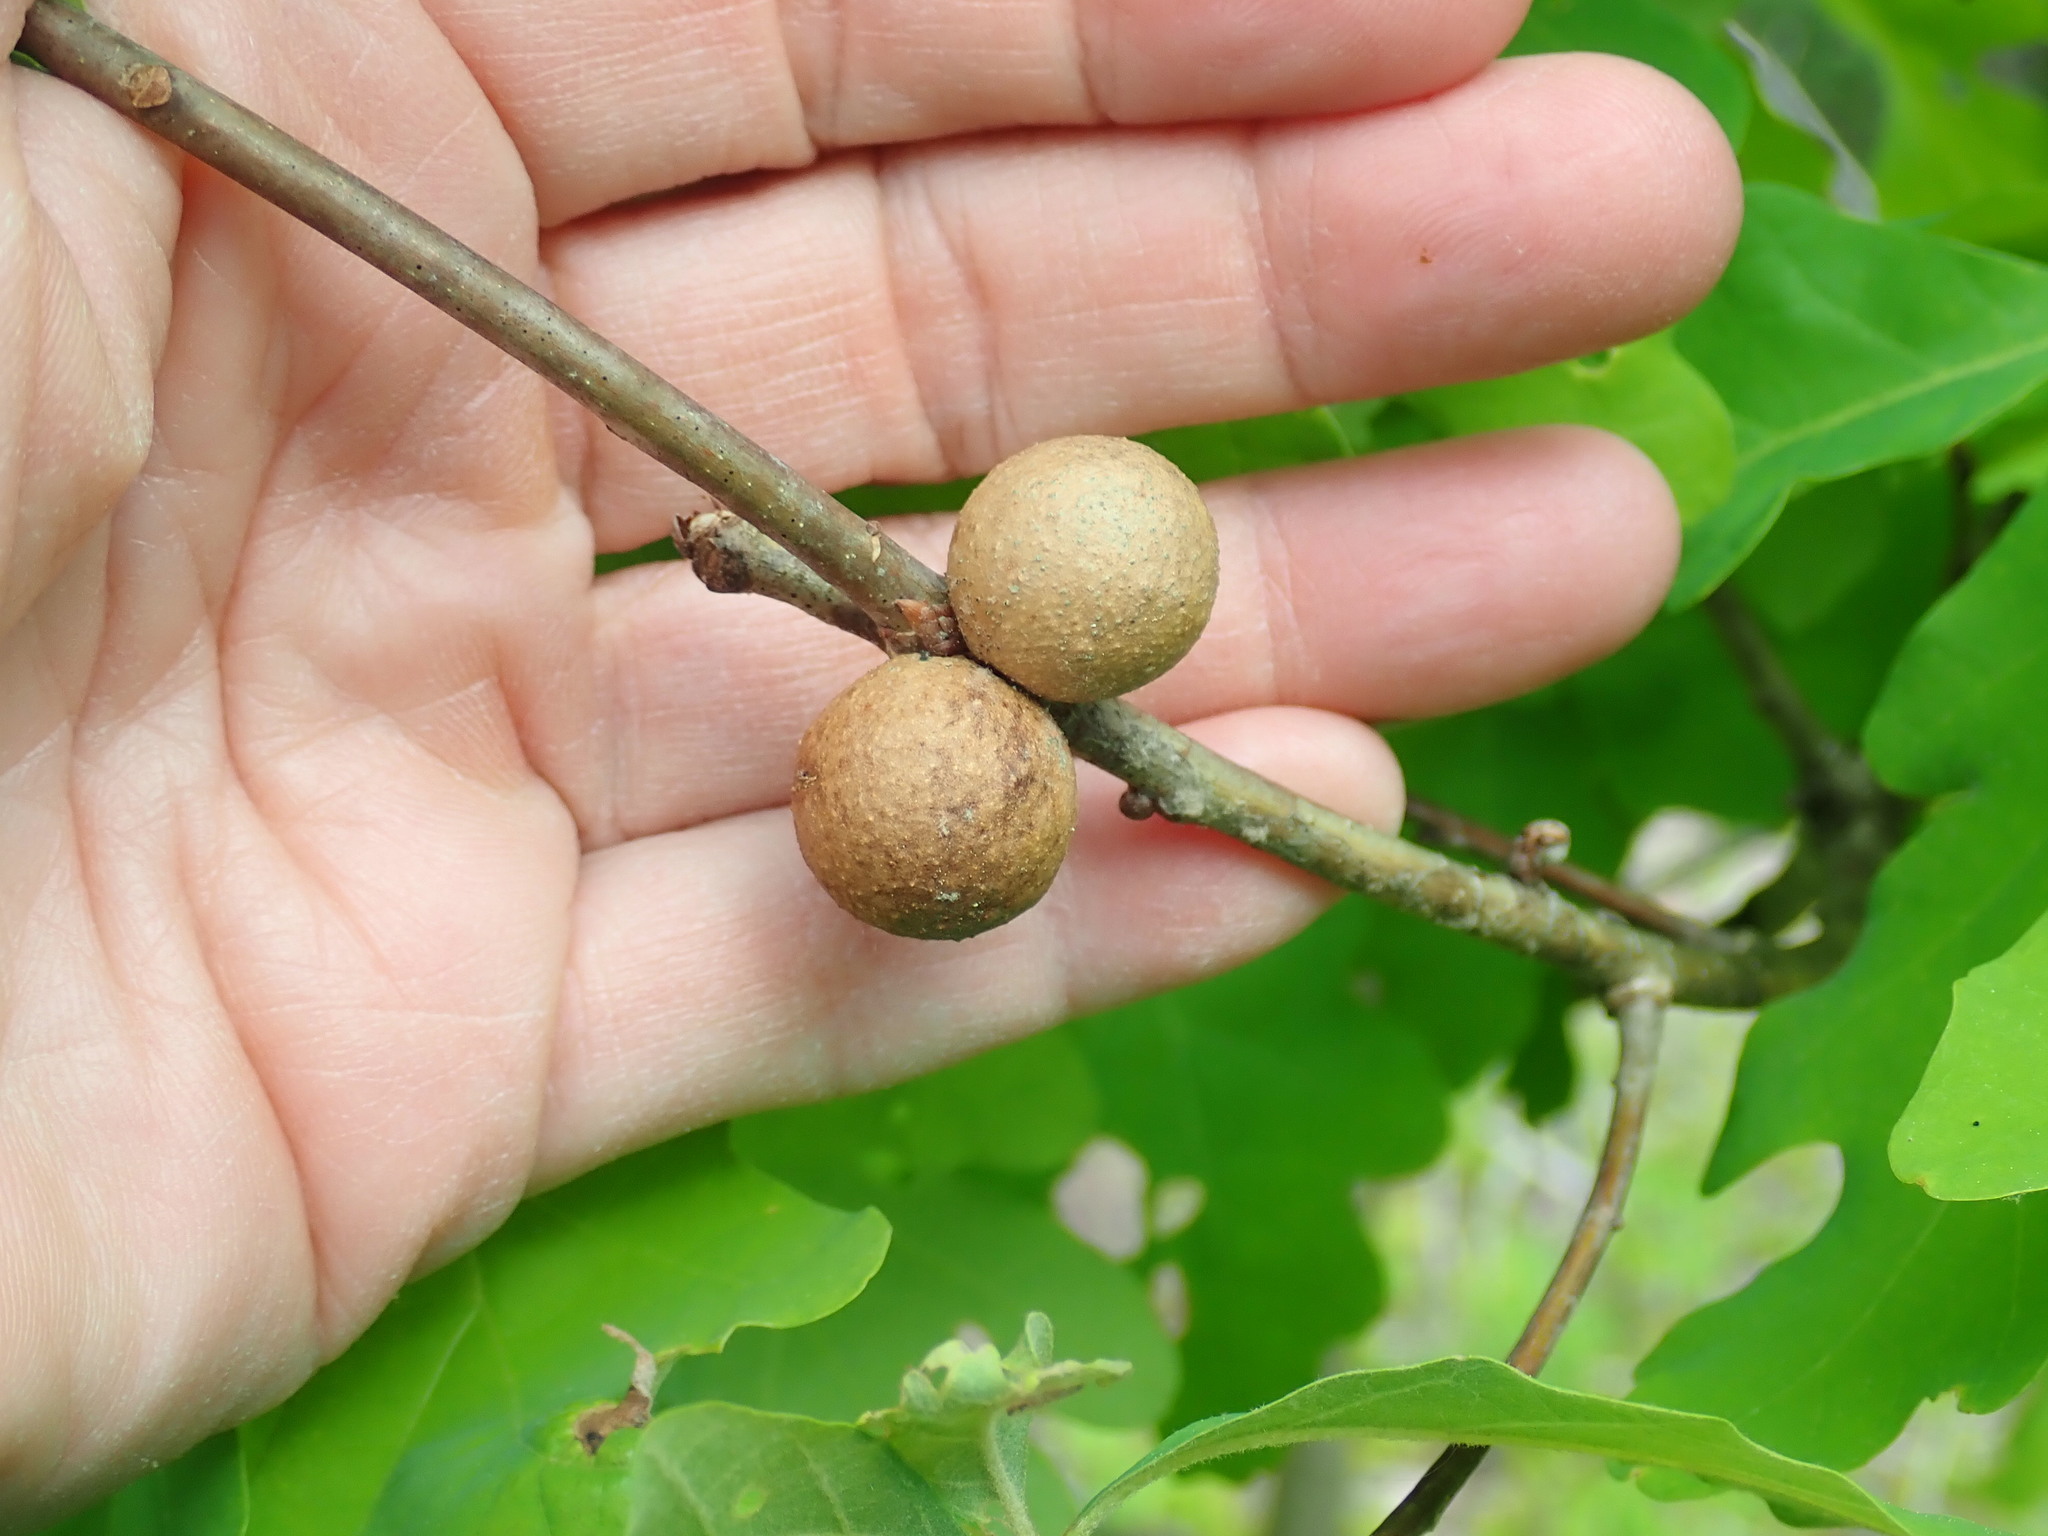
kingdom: Animalia
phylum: Arthropoda
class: Insecta
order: Hymenoptera
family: Cynipidae
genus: Disholcaspis
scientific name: Disholcaspis quercusglobulus
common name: Round bullet gall wasp
